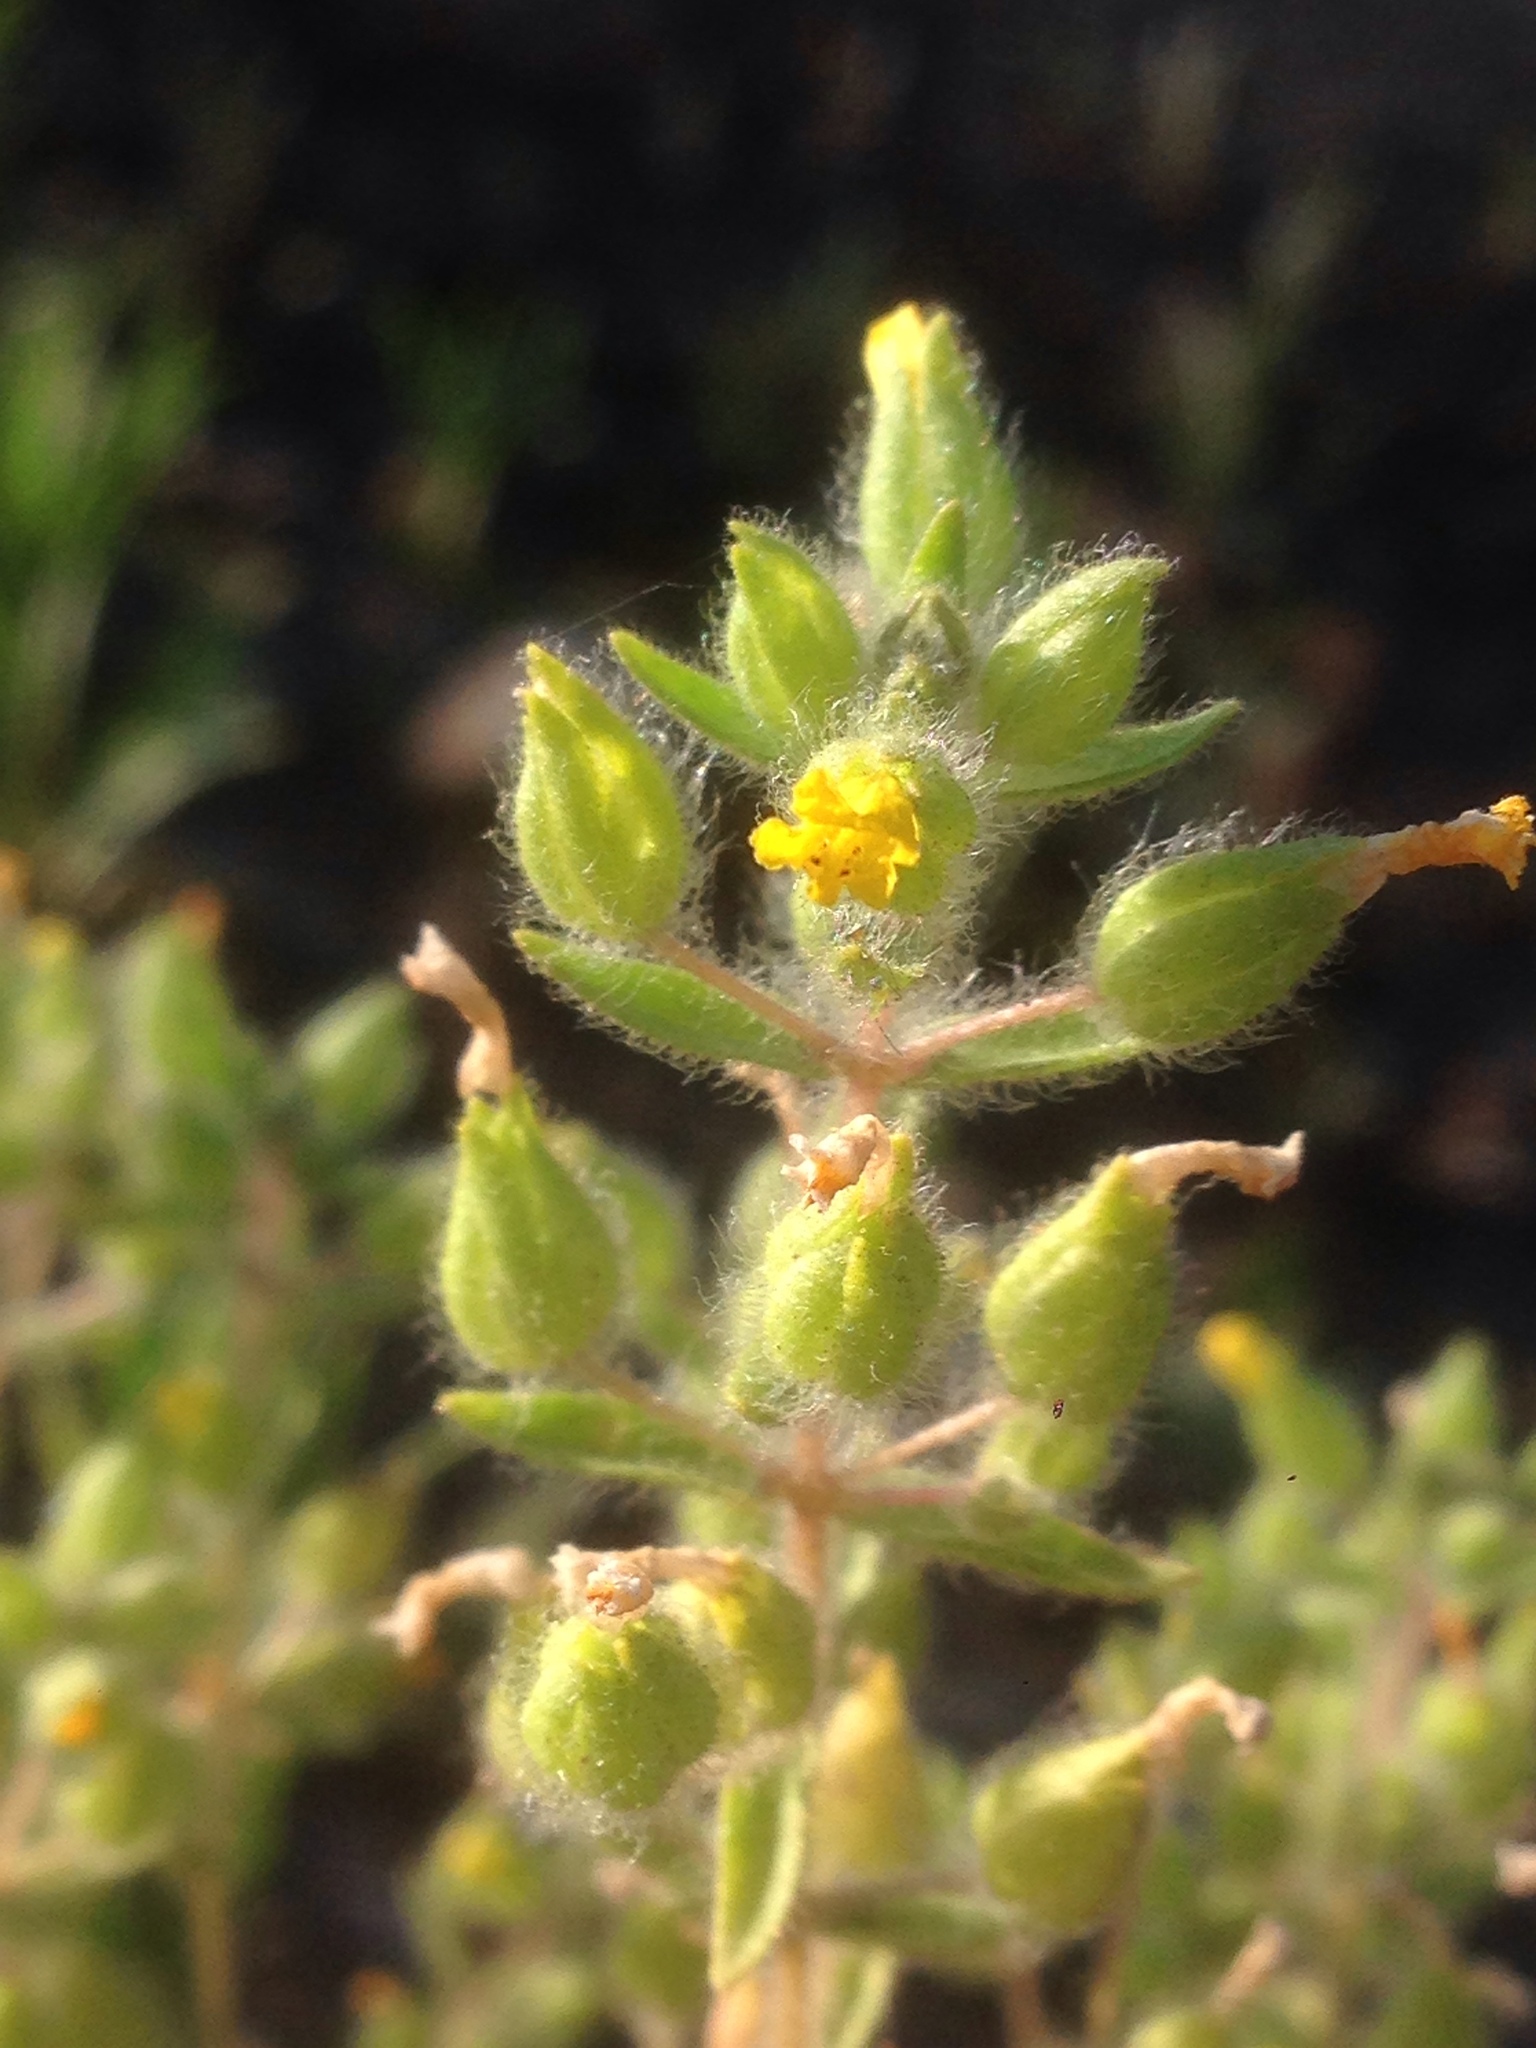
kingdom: Plantae
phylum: Tracheophyta
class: Magnoliopsida
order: Lamiales
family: Phrymaceae
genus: Mimetanthe
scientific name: Mimetanthe pilosa
